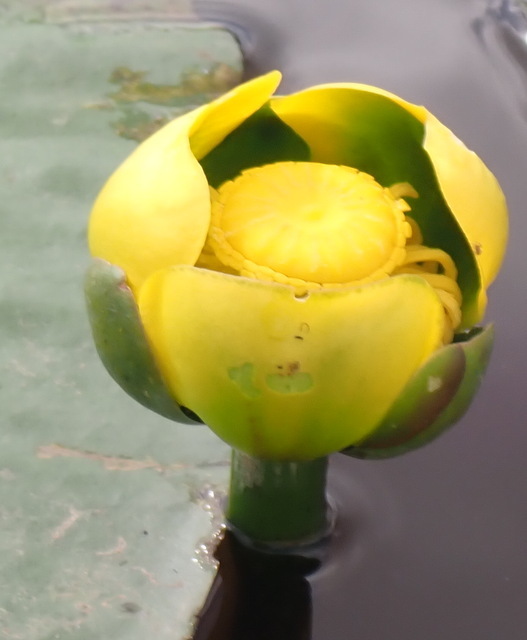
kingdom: Plantae
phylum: Tracheophyta
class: Magnoliopsida
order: Nymphaeales
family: Nymphaeaceae
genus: Nuphar
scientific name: Nuphar advena
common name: Spatter-dock
